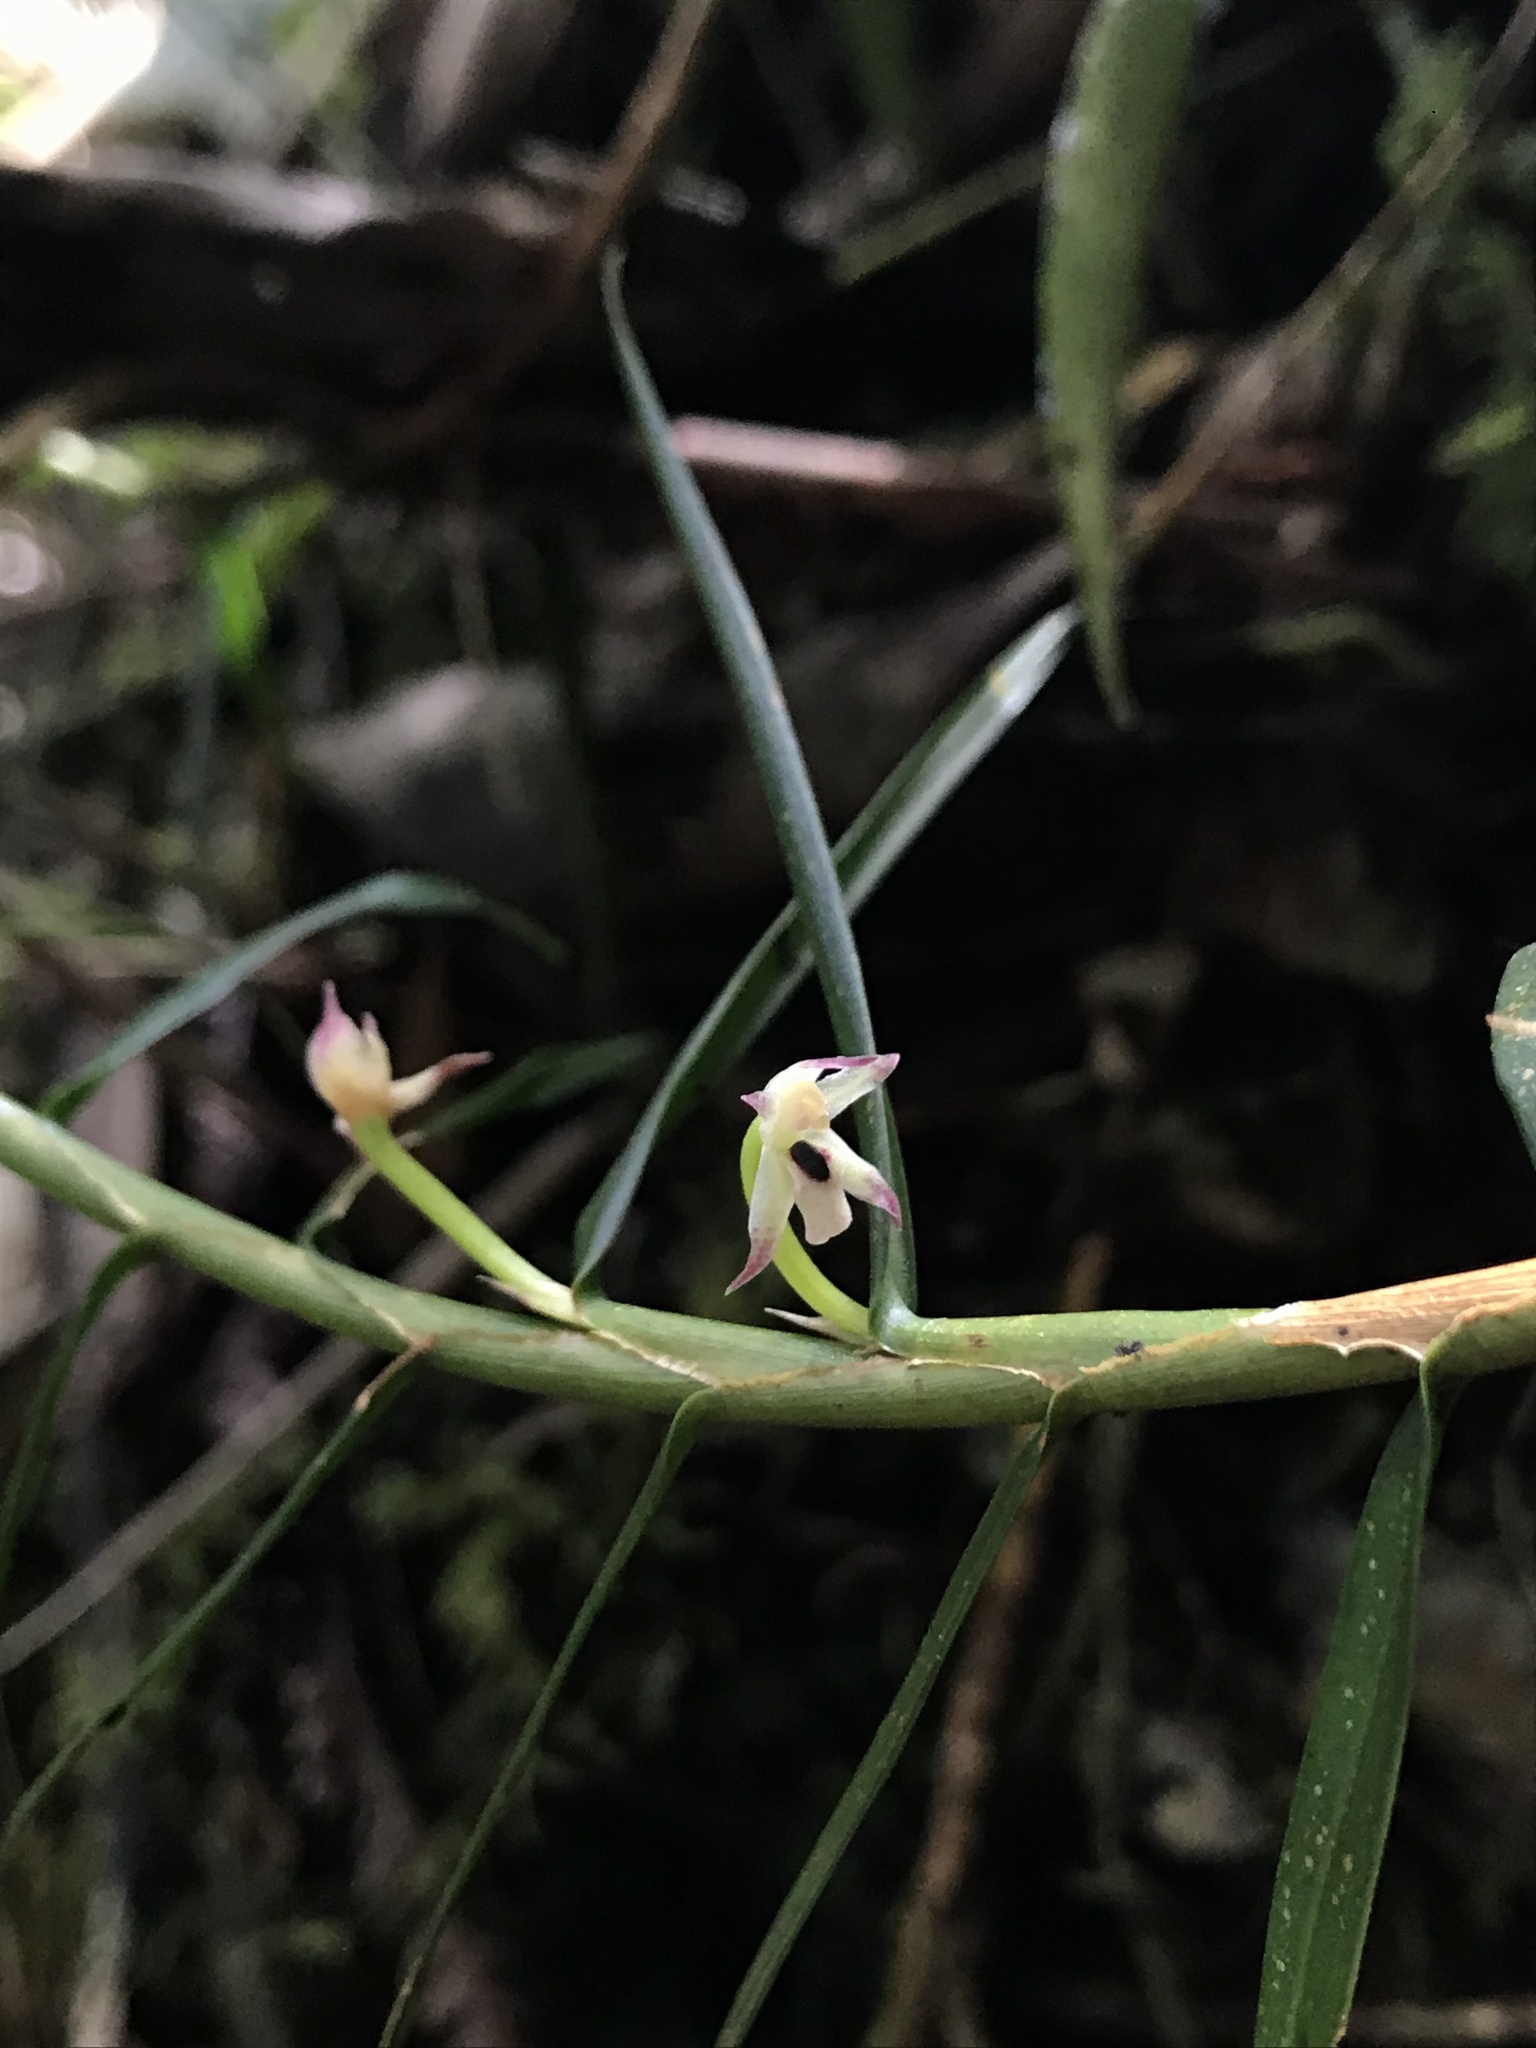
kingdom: Plantae
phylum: Tracheophyta
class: Liliopsida
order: Asparagales
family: Orchidaceae
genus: Maxillaria
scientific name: Maxillaria graminifolia
